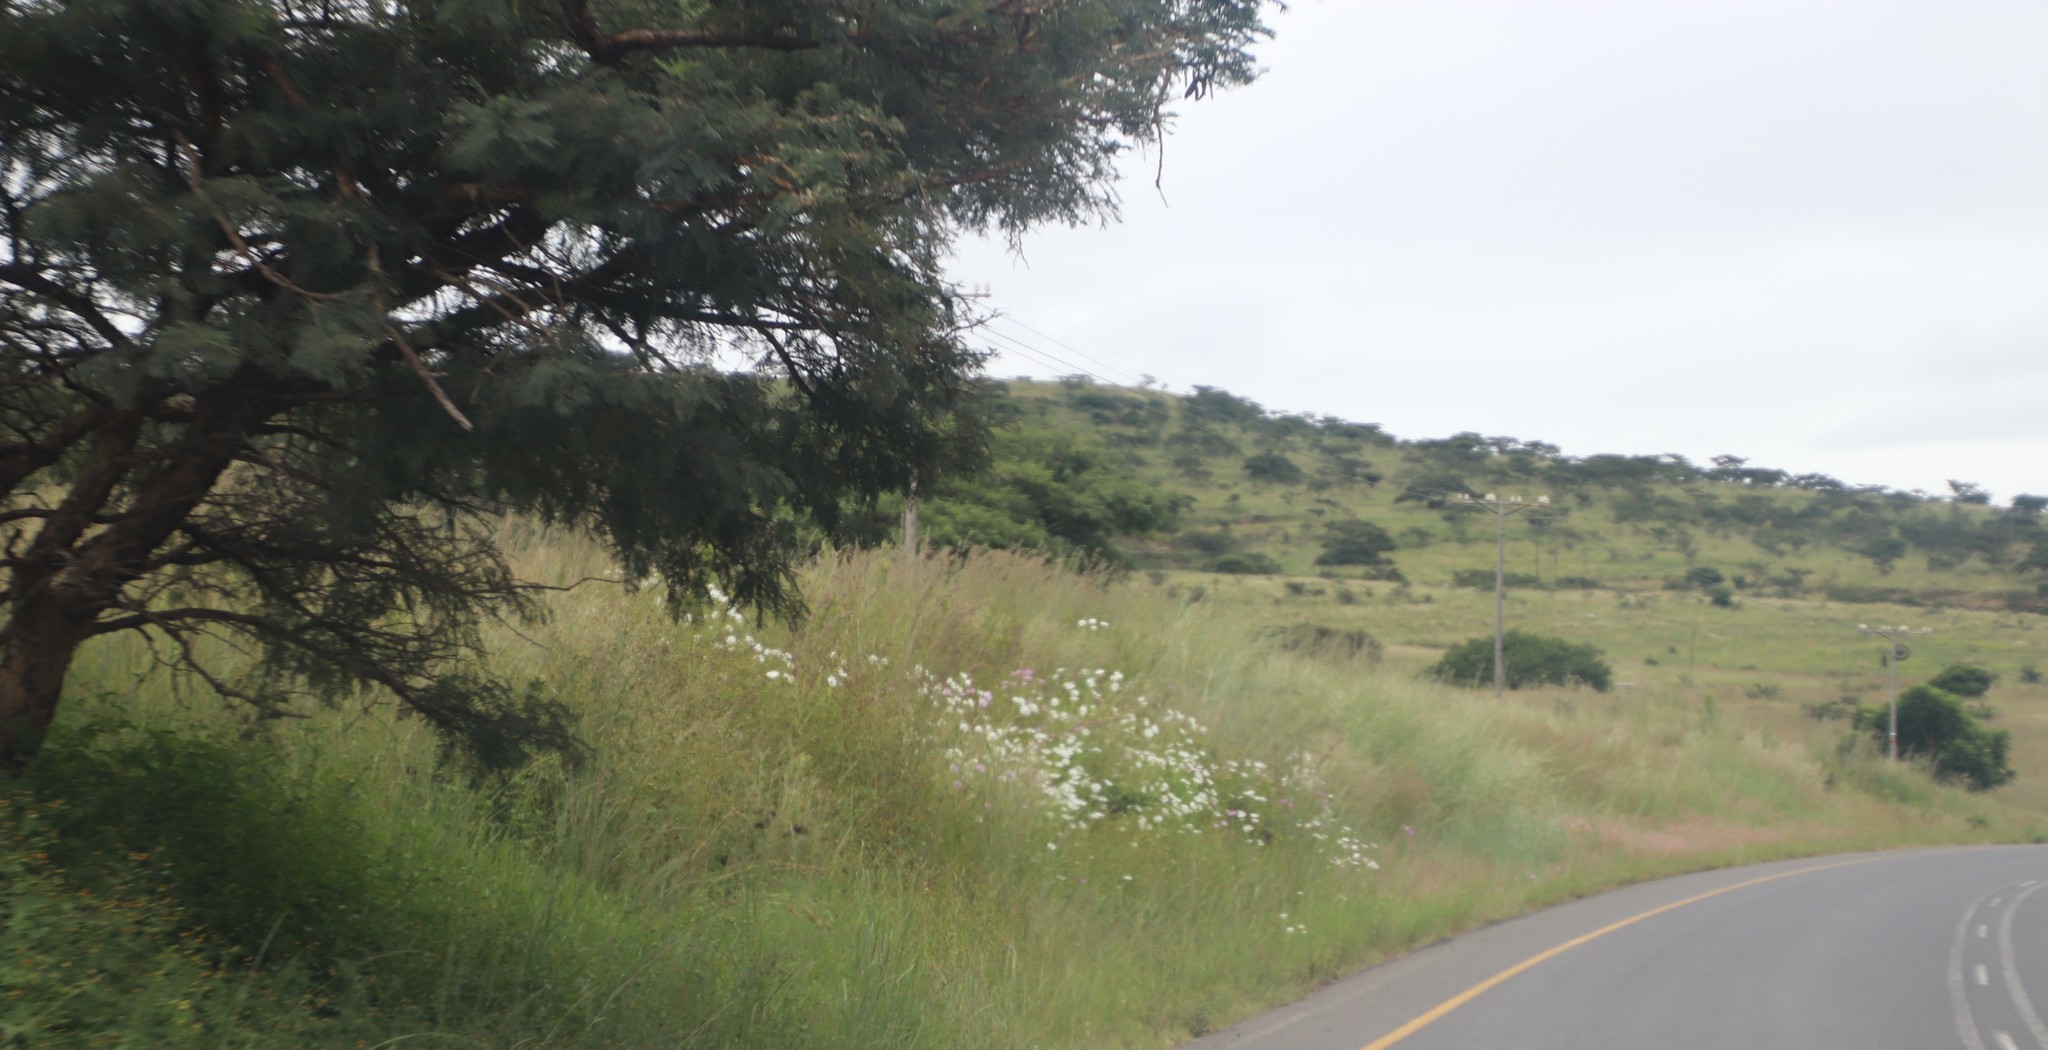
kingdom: Plantae
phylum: Tracheophyta
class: Magnoliopsida
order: Asterales
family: Asteraceae
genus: Cosmos
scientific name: Cosmos bipinnatus
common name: Garden cosmos
